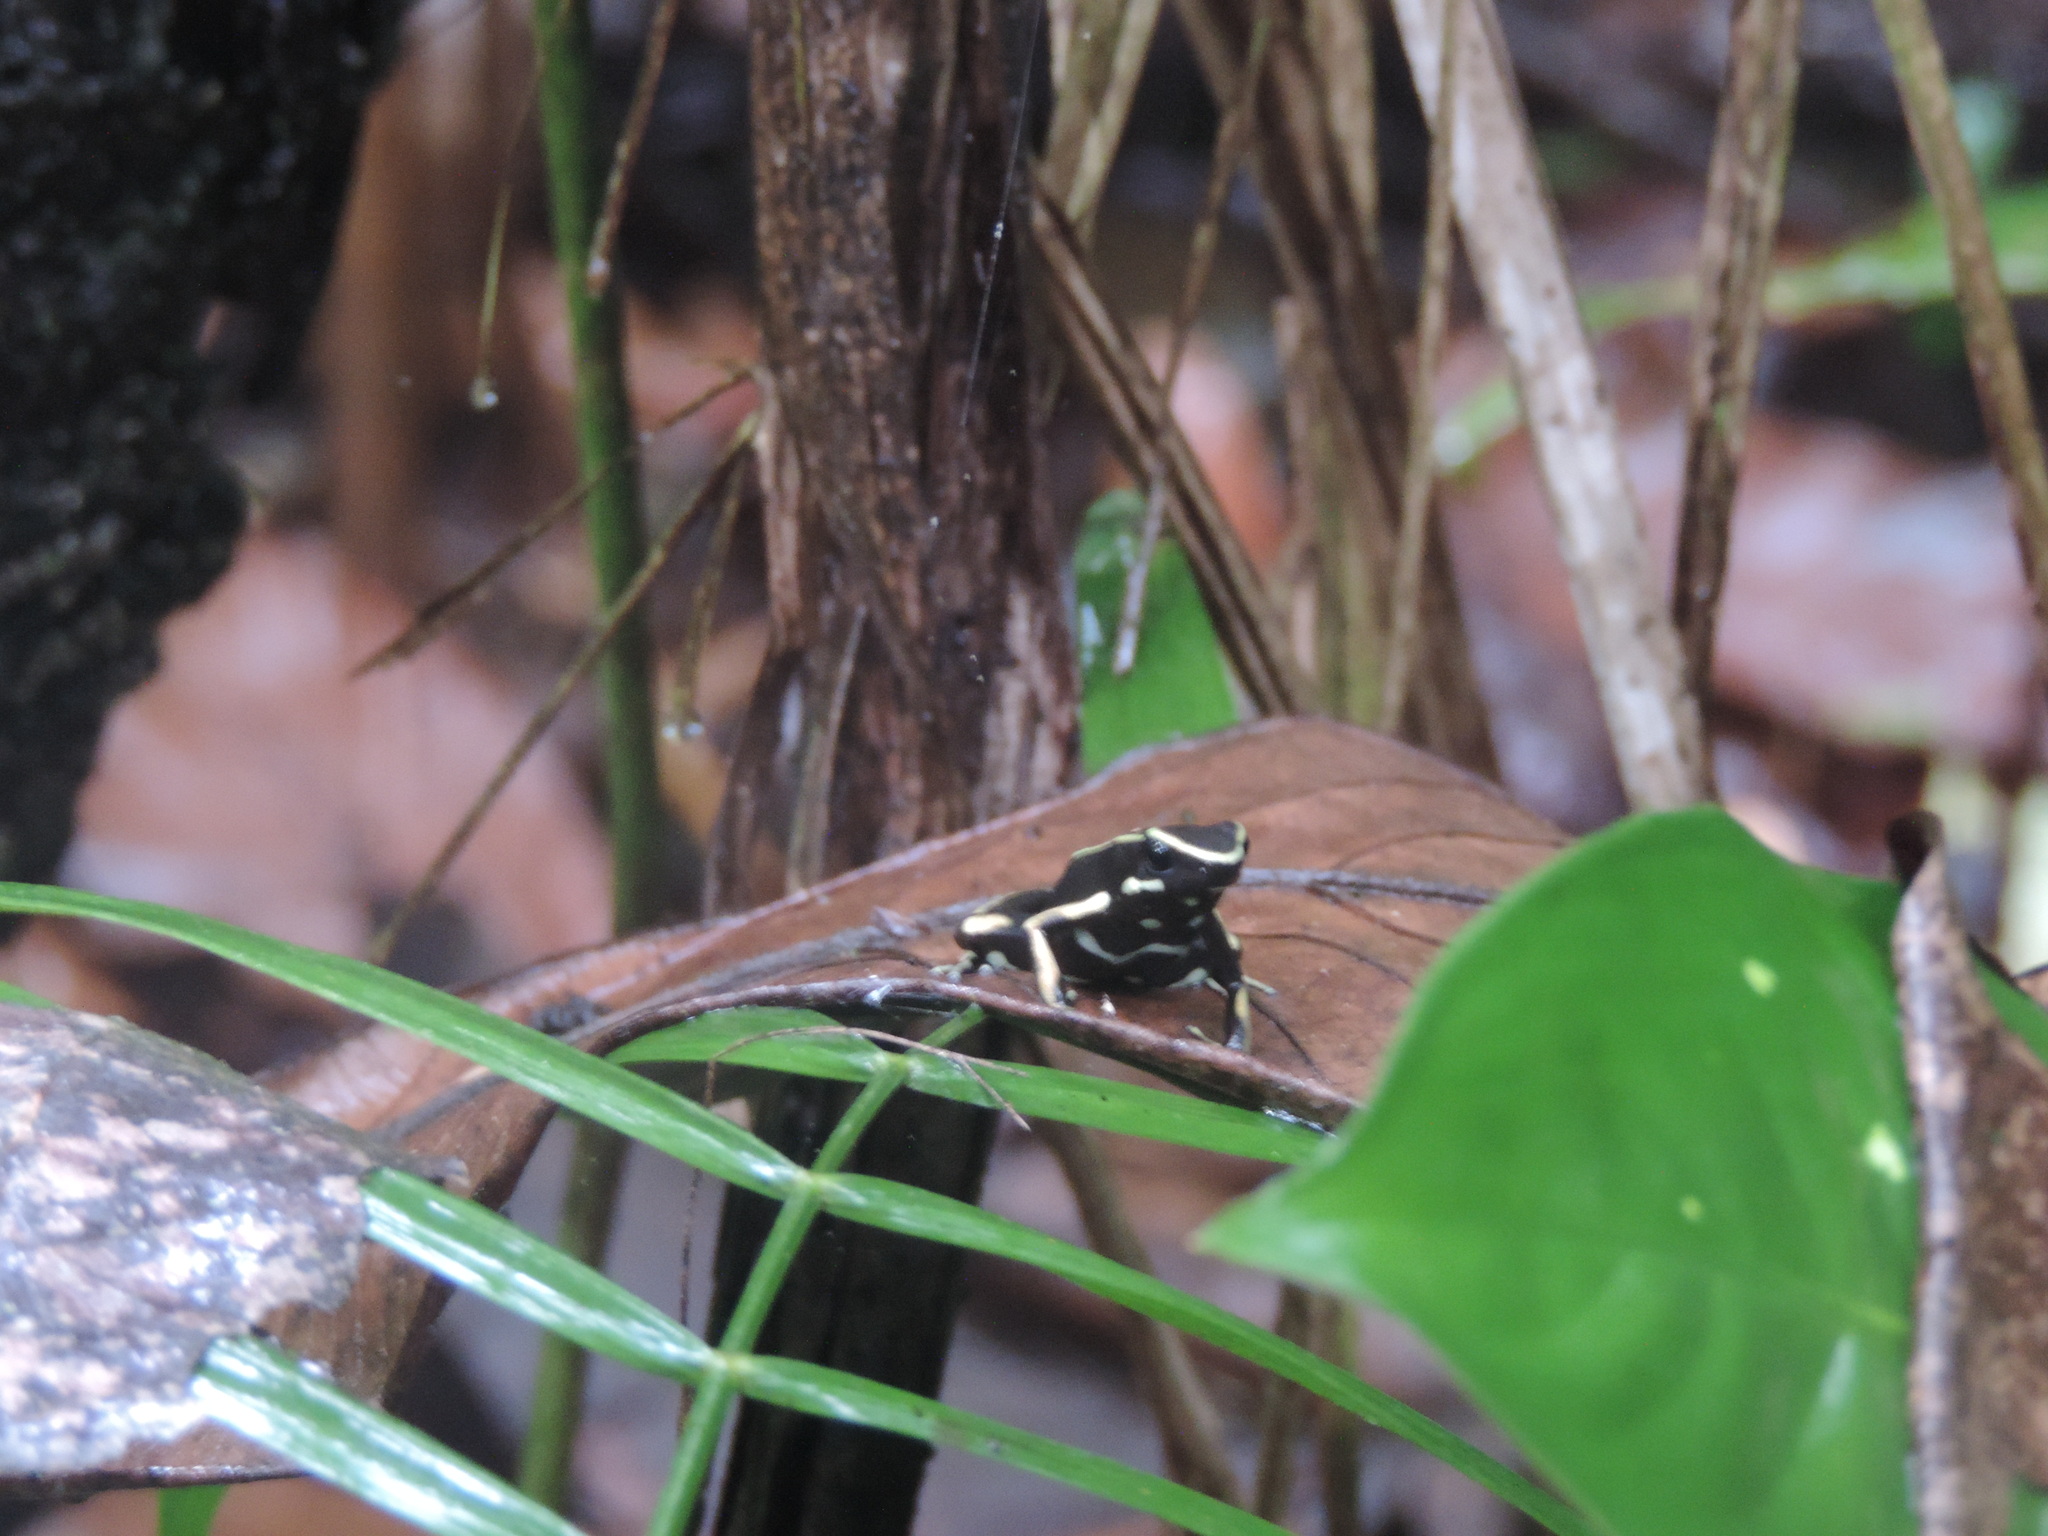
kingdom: Animalia
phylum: Chordata
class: Amphibia
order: Anura
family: Dendrobatidae
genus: Dendrobates
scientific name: Dendrobates truncatus
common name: Yellow-striped poison frog
